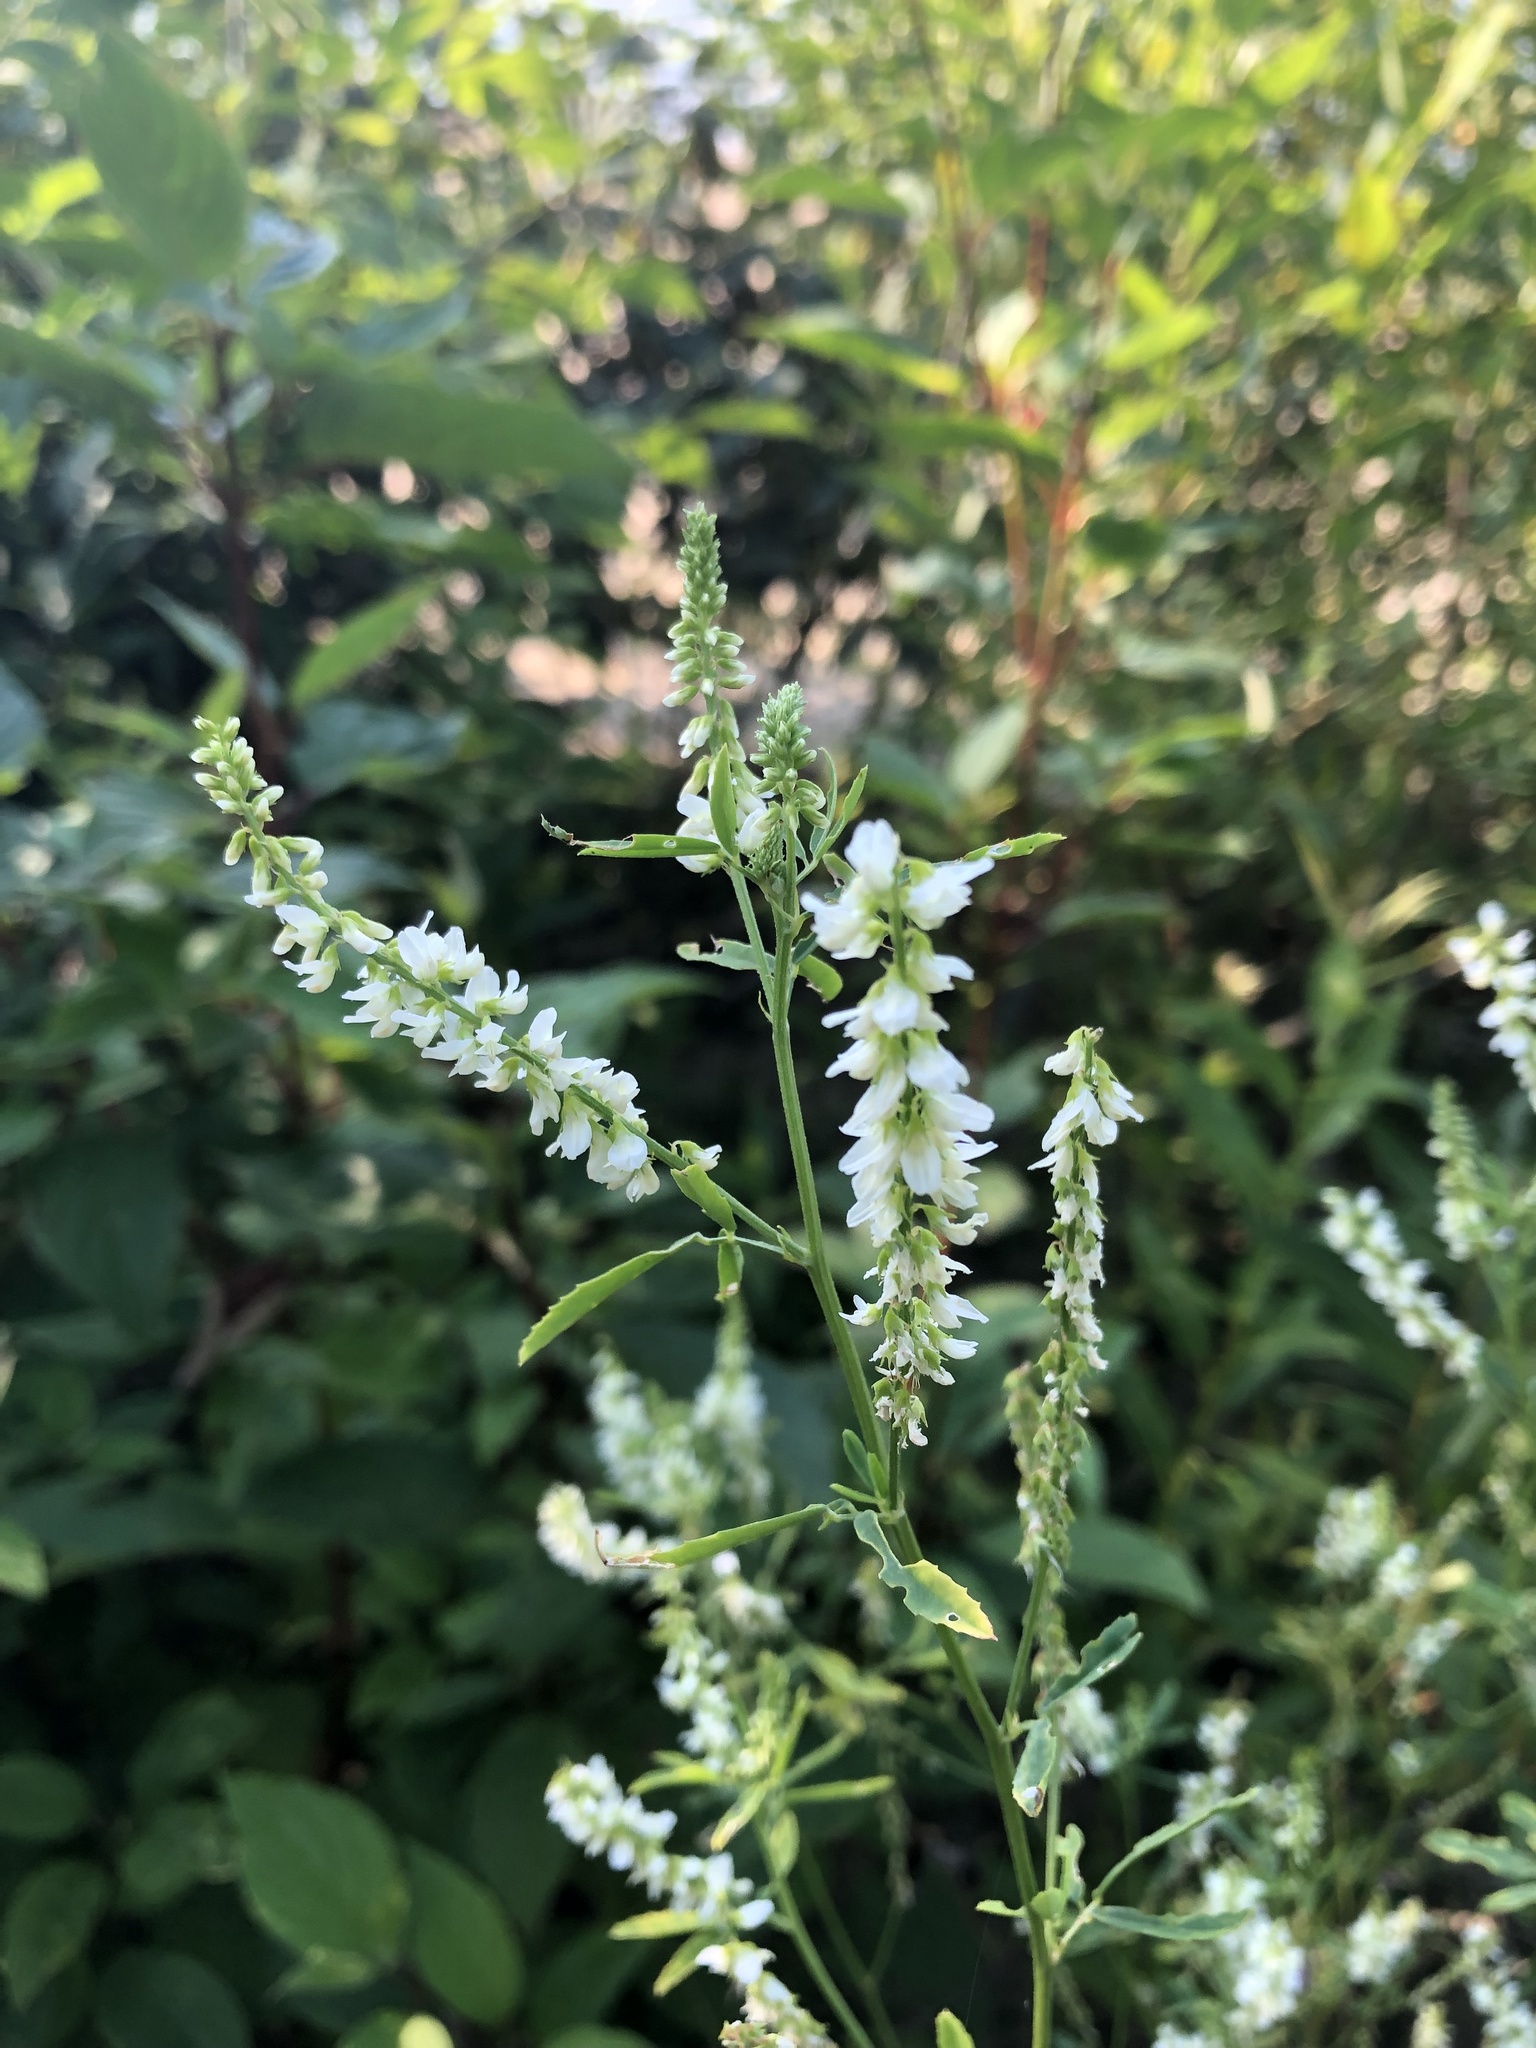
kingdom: Plantae
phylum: Tracheophyta
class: Magnoliopsida
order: Fabales
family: Fabaceae
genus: Melilotus
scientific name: Melilotus albus
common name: White melilot
